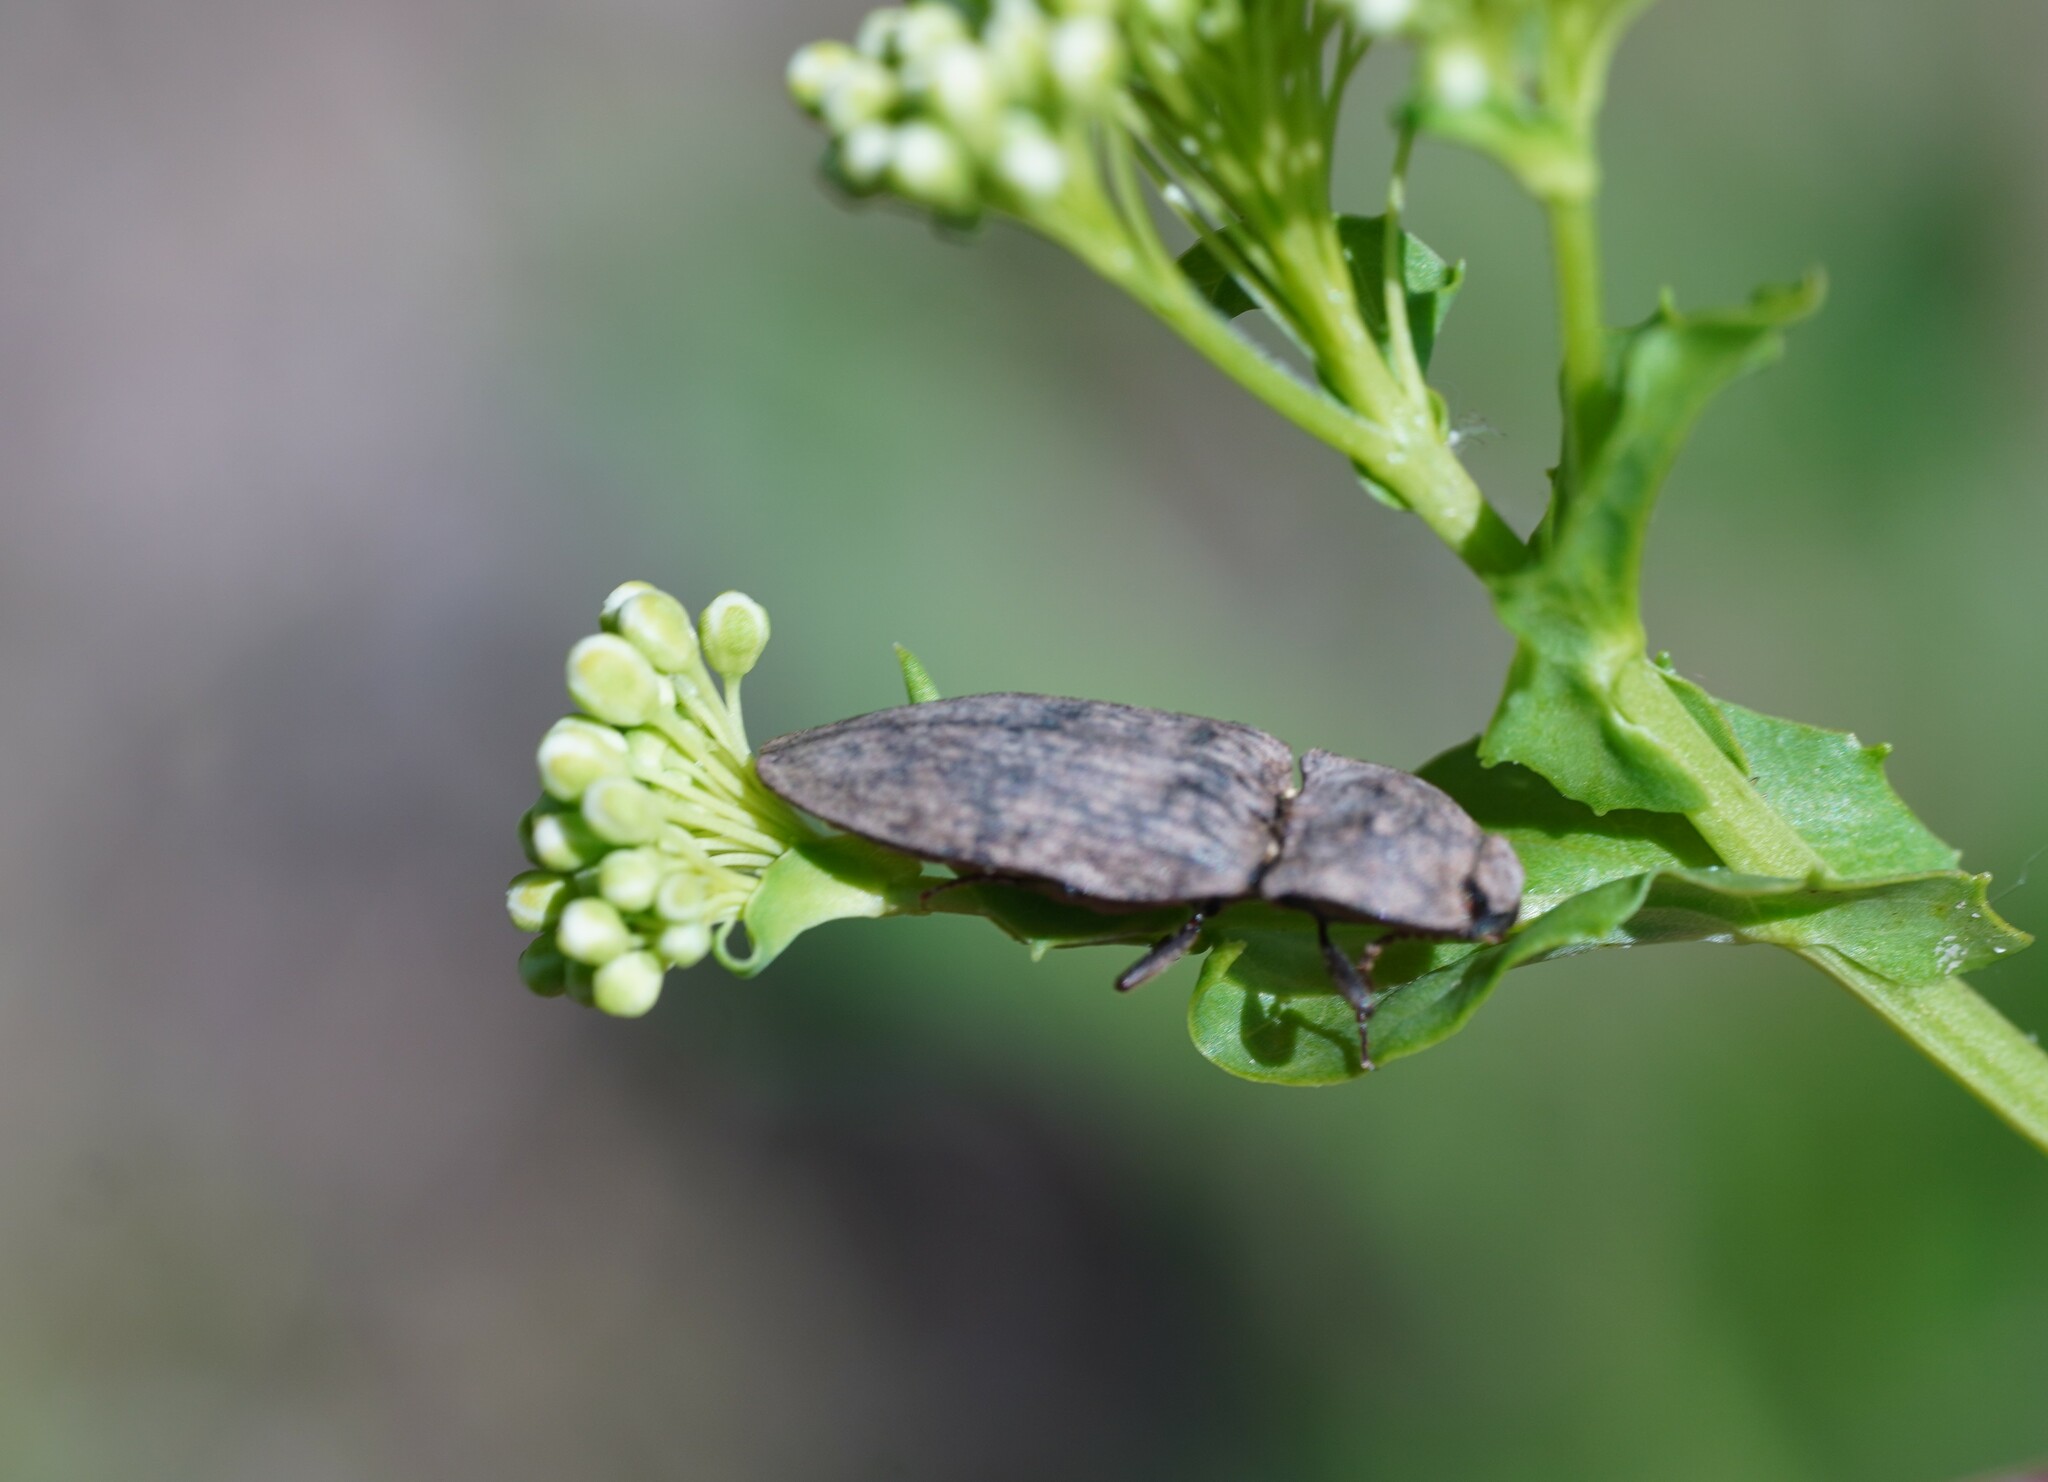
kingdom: Animalia
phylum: Arthropoda
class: Insecta
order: Coleoptera
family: Elateridae
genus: Agrypnus
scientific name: Agrypnus murinus
